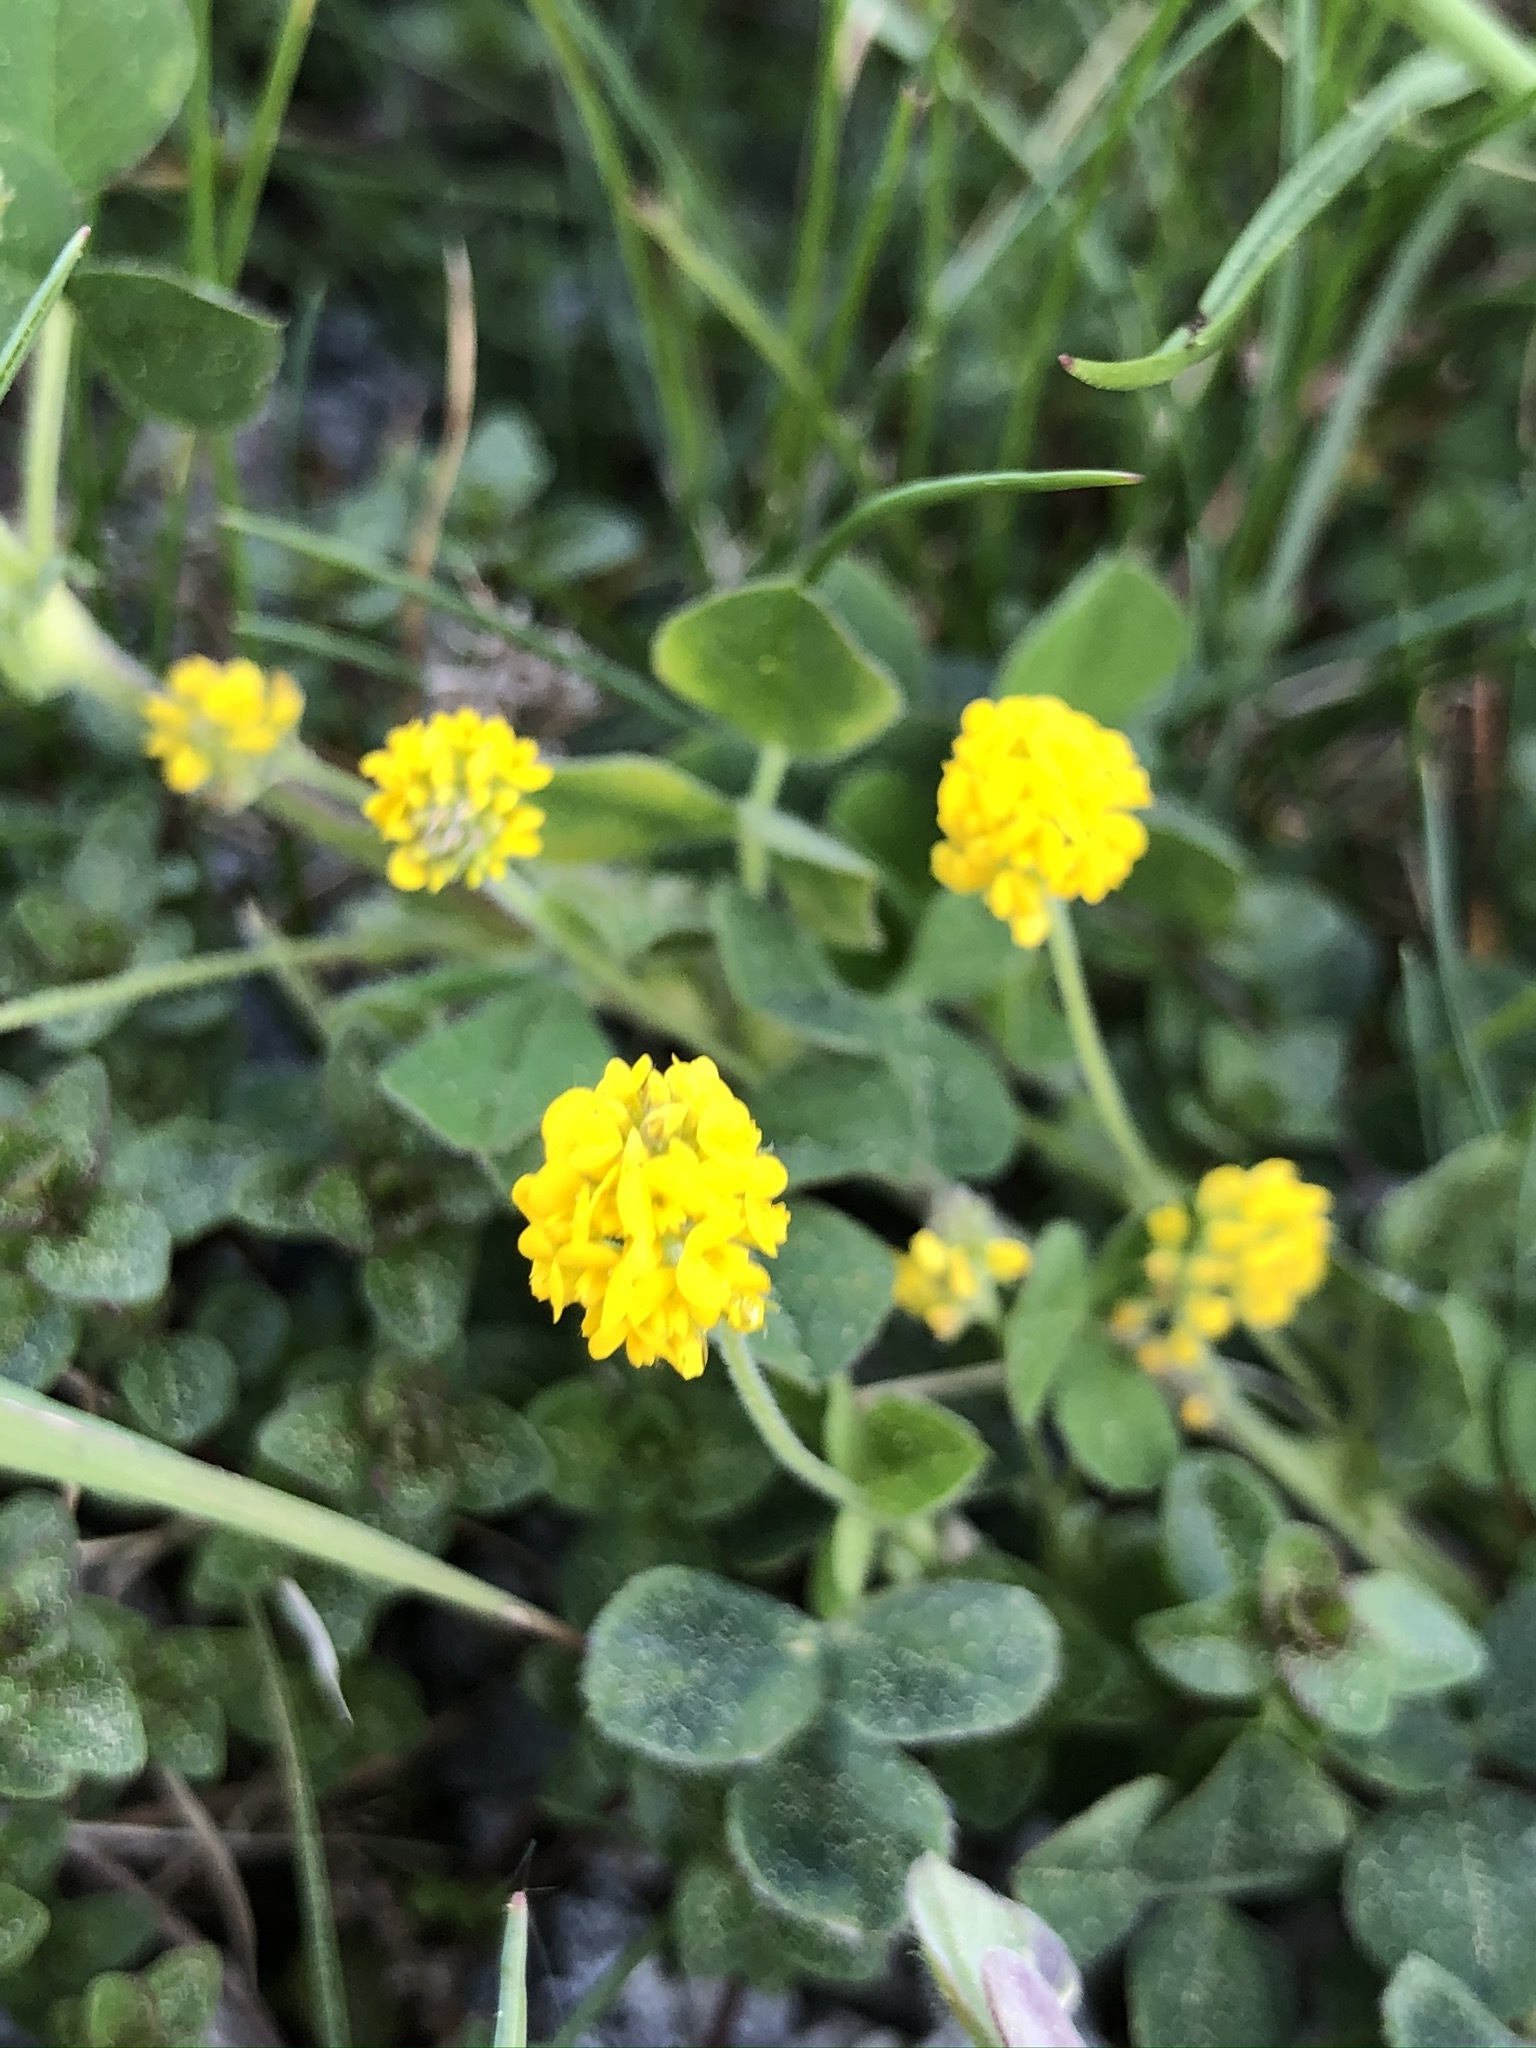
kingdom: Plantae
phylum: Tracheophyta
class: Magnoliopsida
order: Fabales
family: Fabaceae
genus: Medicago
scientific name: Medicago lupulina
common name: Black medick
